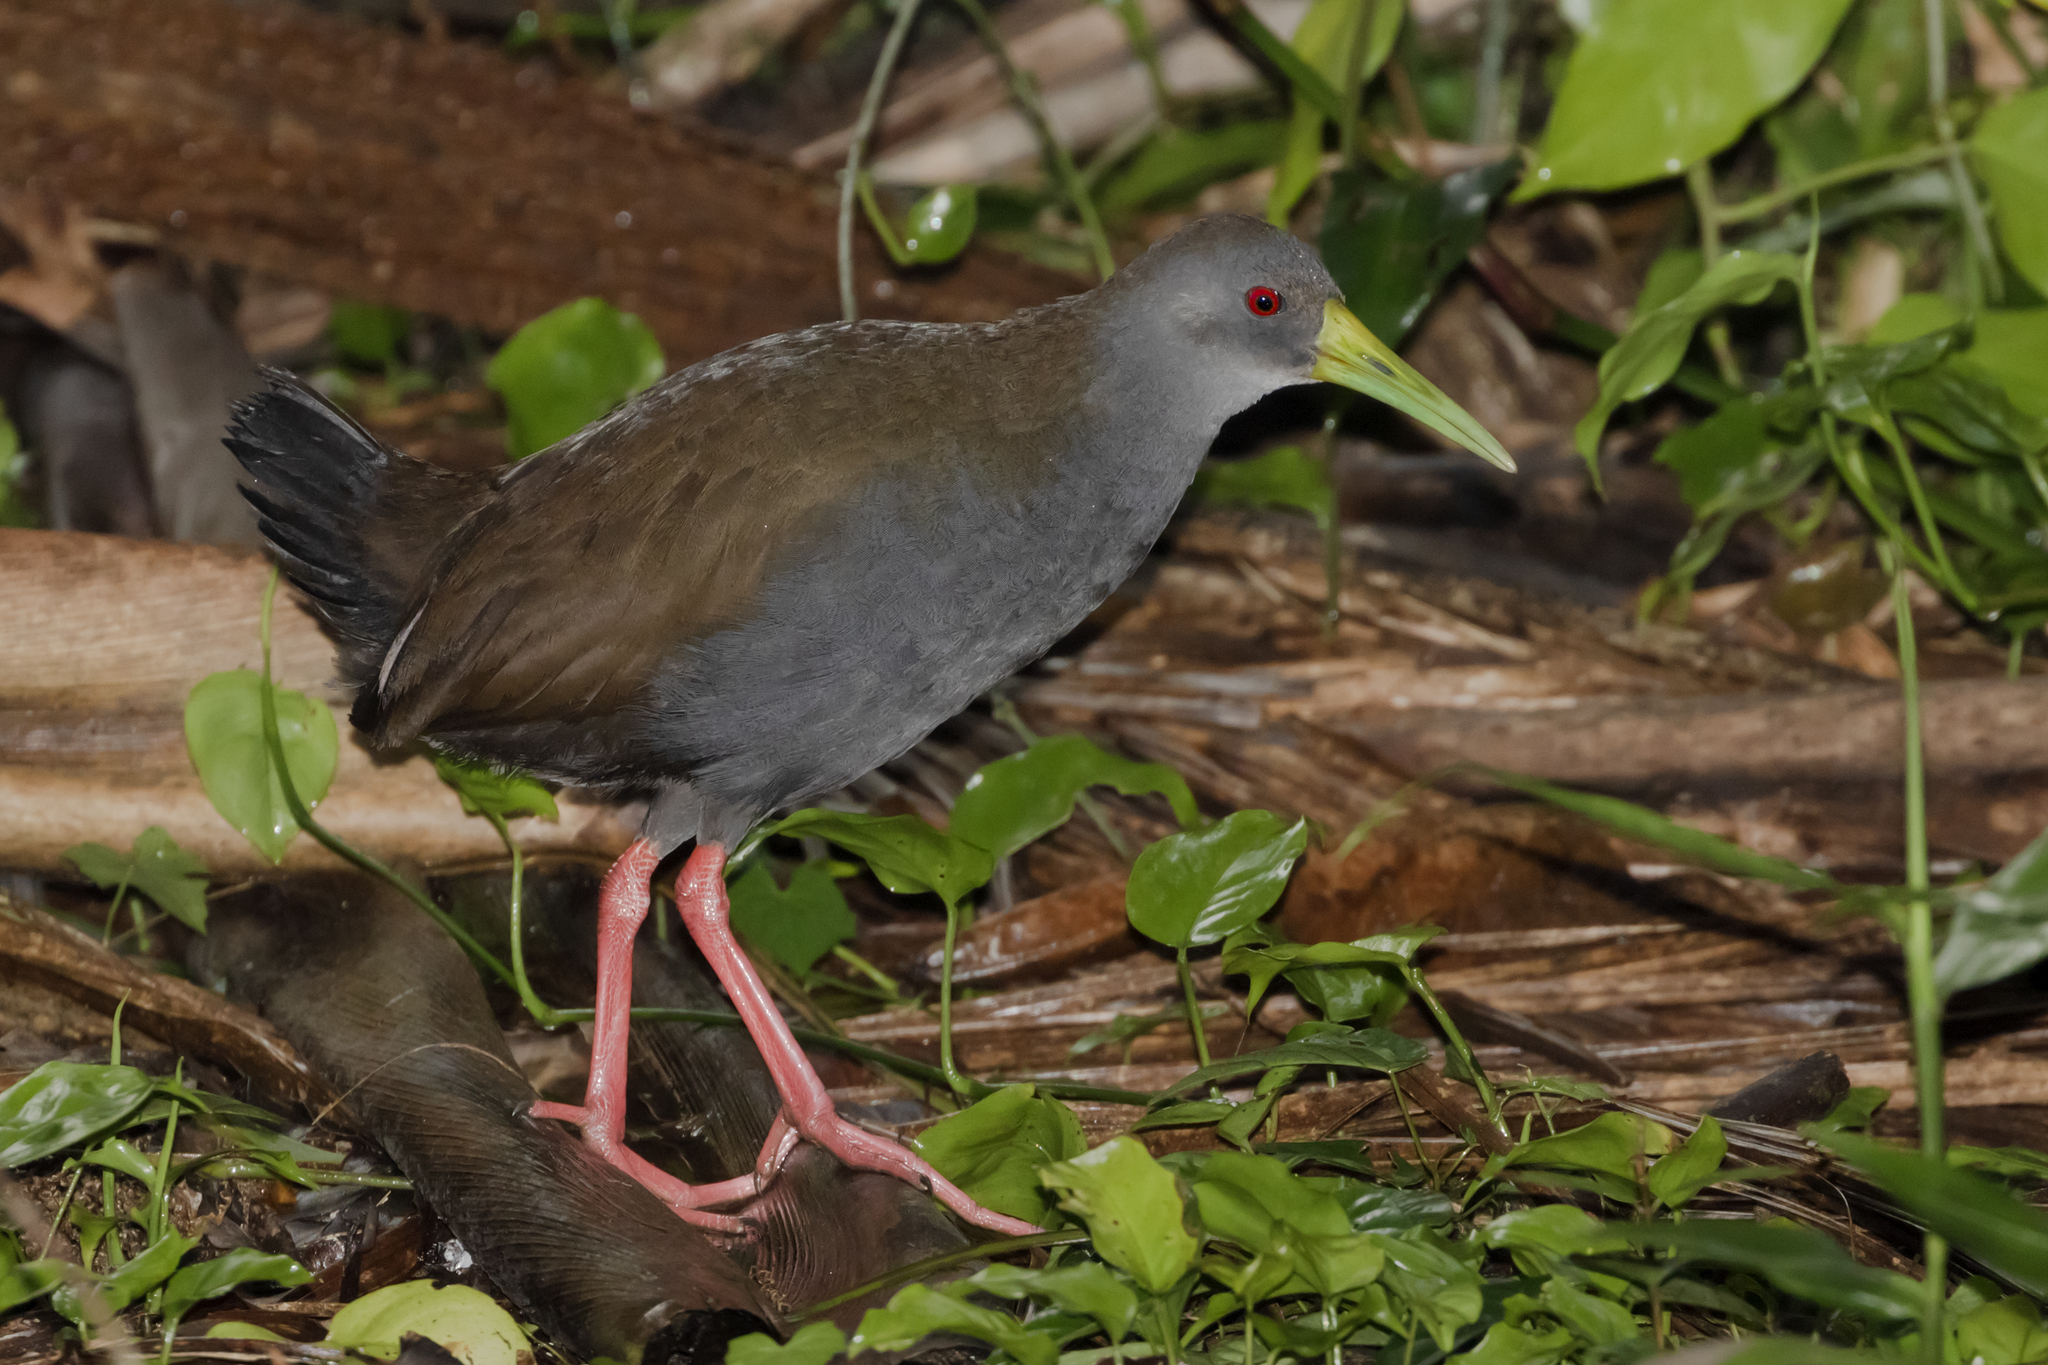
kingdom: Animalia
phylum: Chordata
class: Aves
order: Gruiformes
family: Rallidae
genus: Pardirallus
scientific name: Pardirallus nigricans
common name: Blackish rail
